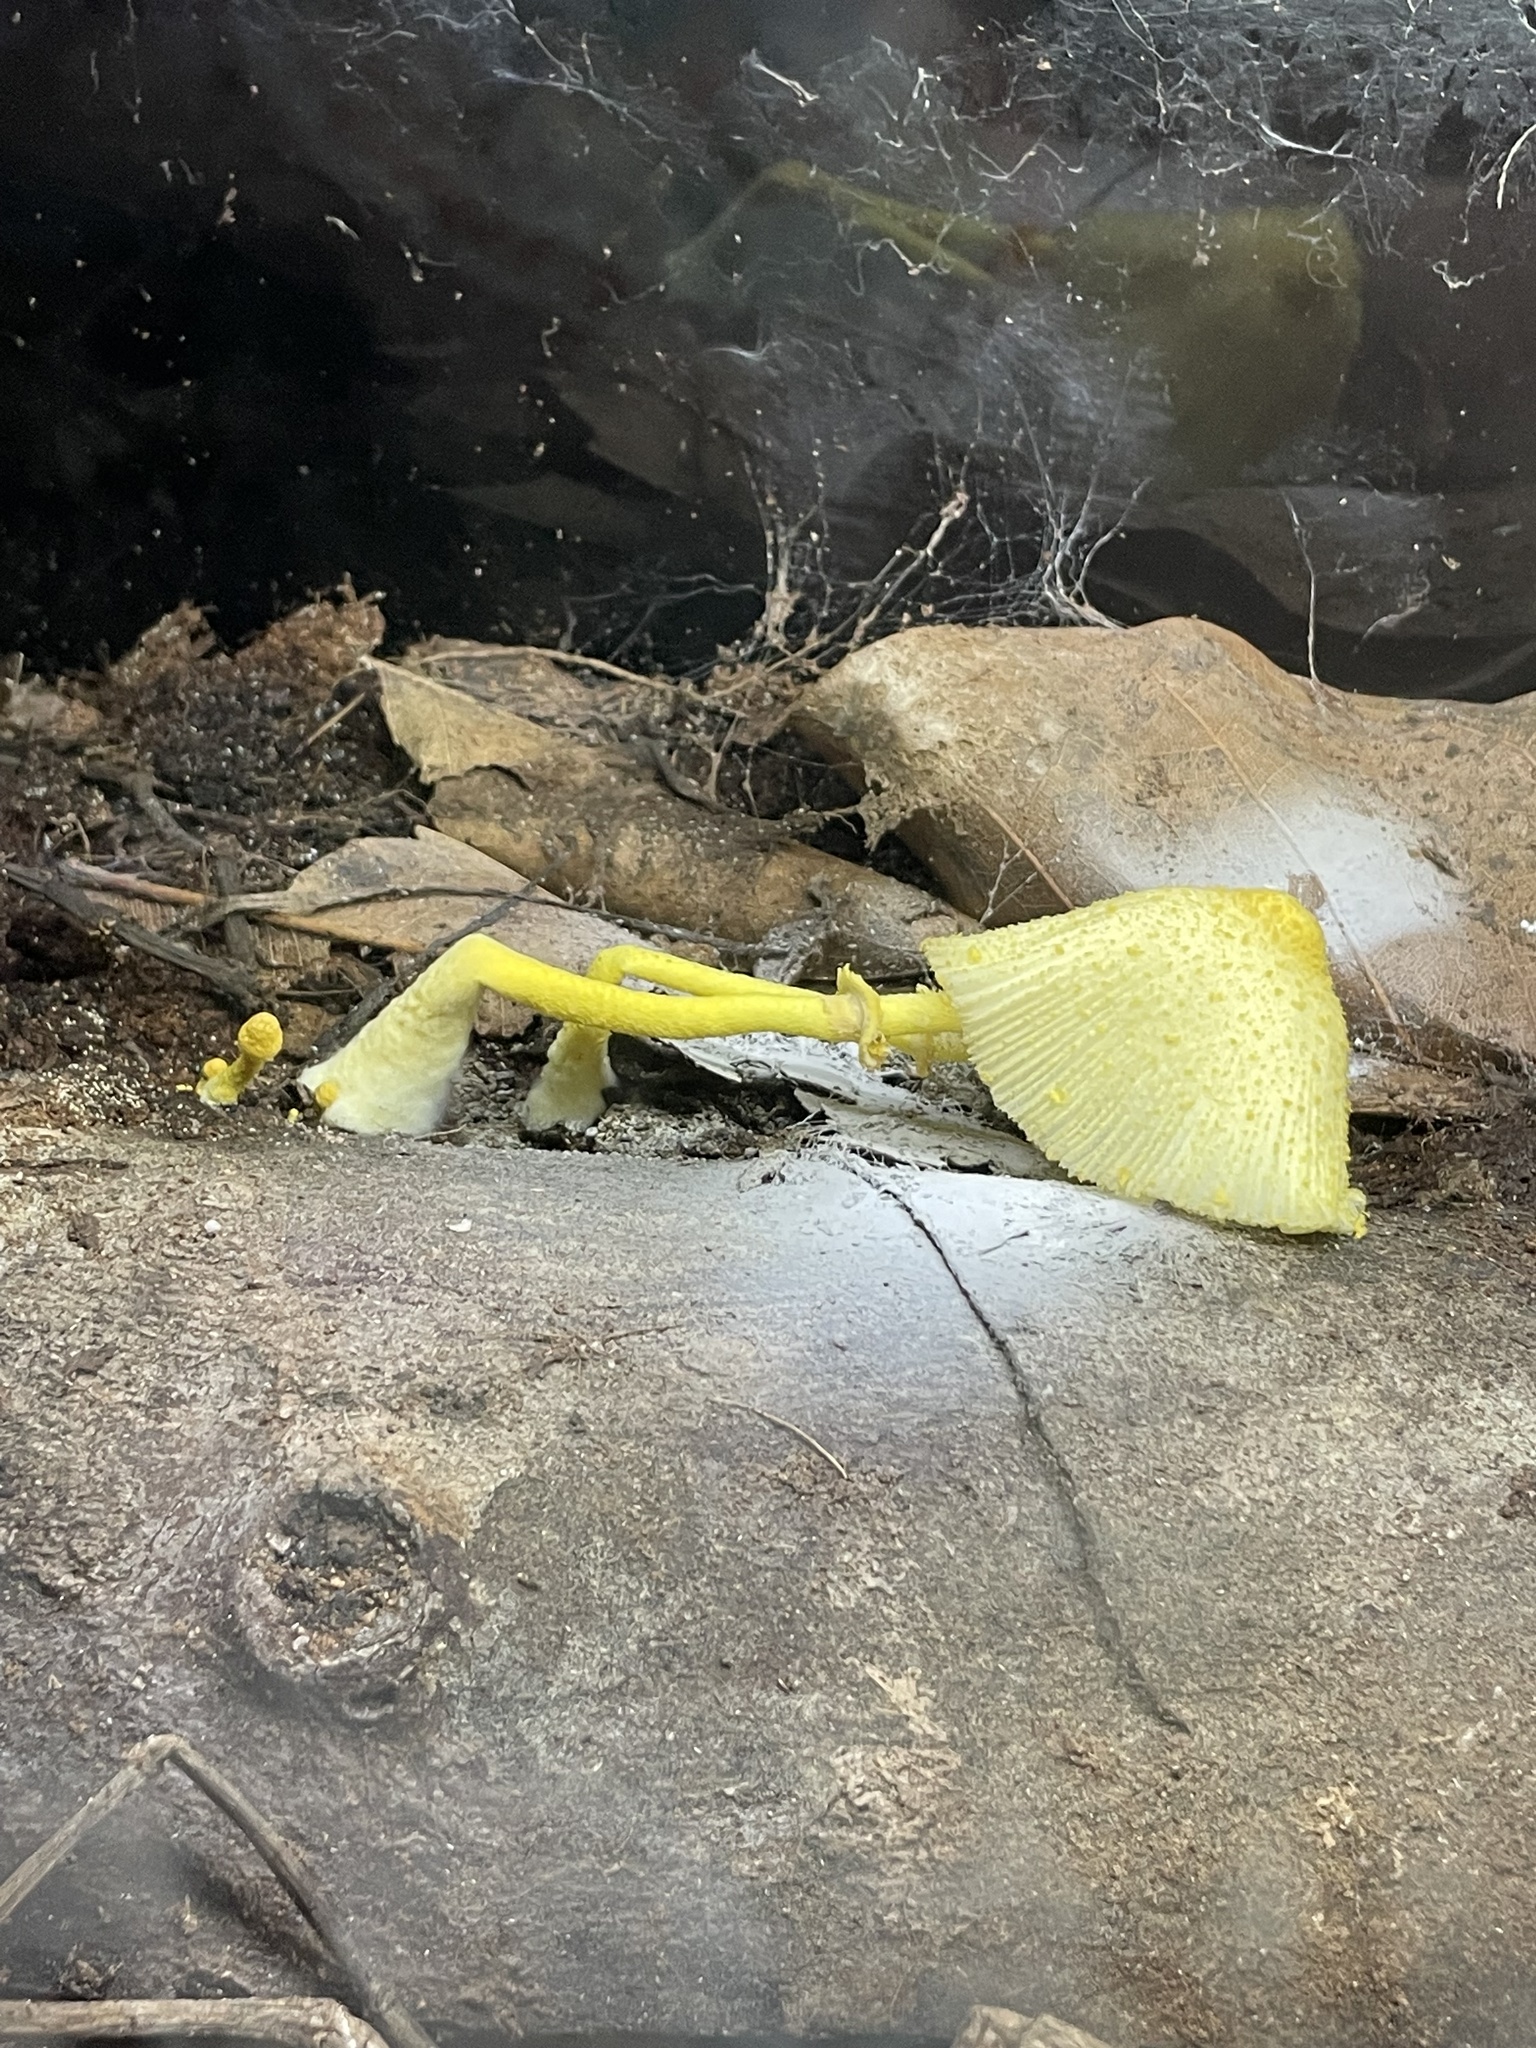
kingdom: Fungi
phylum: Basidiomycota
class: Agaricomycetes
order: Agaricales
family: Agaricaceae
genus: Leucocoprinus
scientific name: Leucocoprinus birnbaumii
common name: Plantpot dapperling
